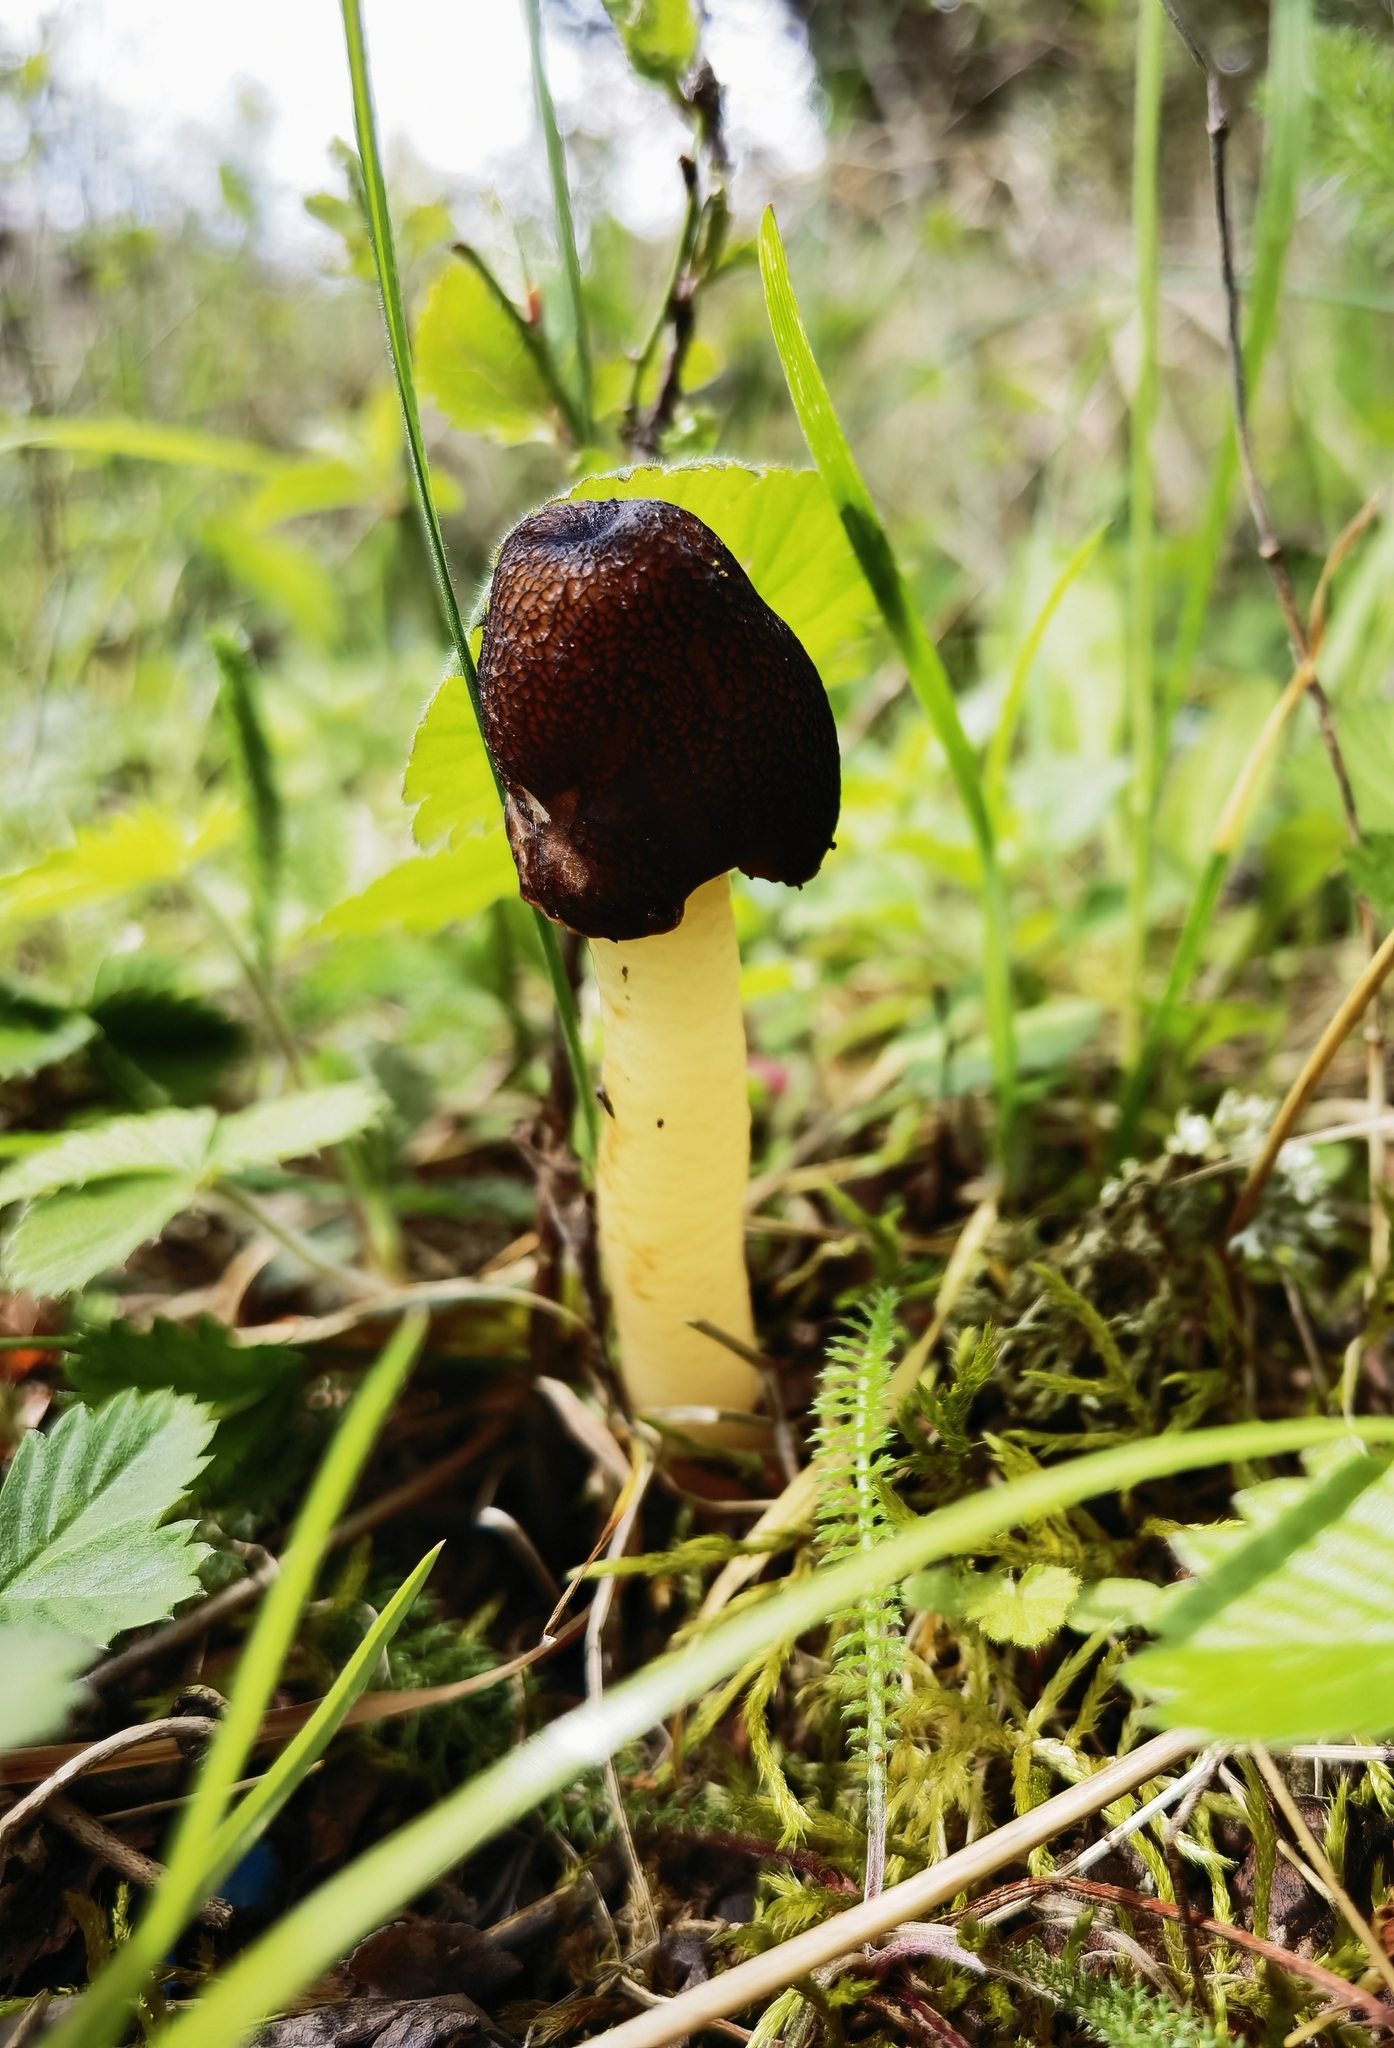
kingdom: Fungi
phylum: Ascomycota
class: Pezizomycetes
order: Pezizales
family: Morchellaceae
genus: Verpa
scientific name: Verpa conica
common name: Thimble morel
